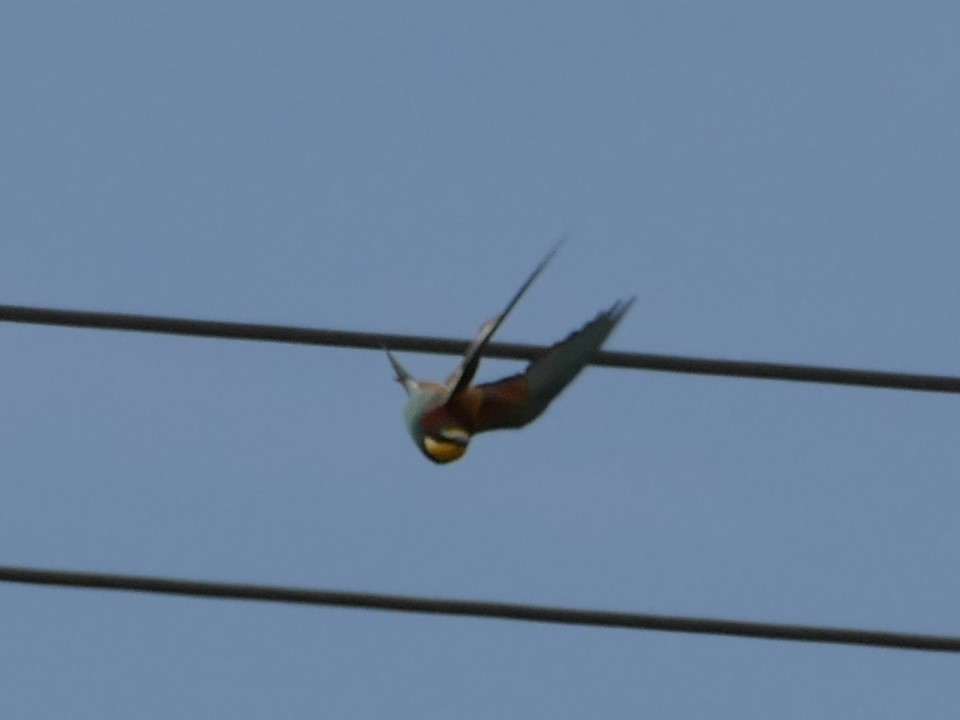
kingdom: Animalia
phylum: Chordata
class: Aves
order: Coraciiformes
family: Meropidae
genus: Merops
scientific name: Merops apiaster
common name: European bee-eater
